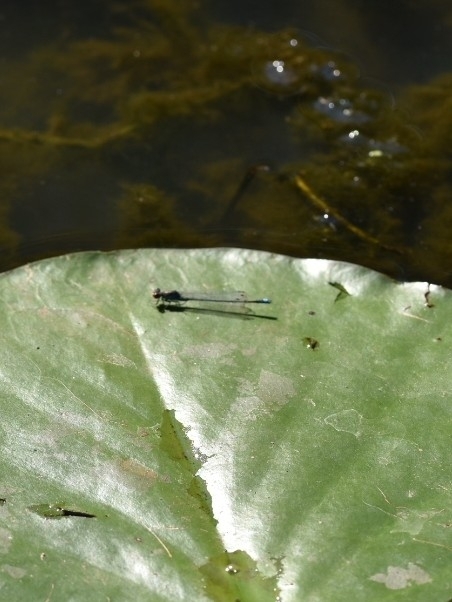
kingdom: Animalia
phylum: Arthropoda
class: Insecta
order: Odonata
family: Coenagrionidae
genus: Erythromma
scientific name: Erythromma viridulum
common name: Small red-eyed damselfly
